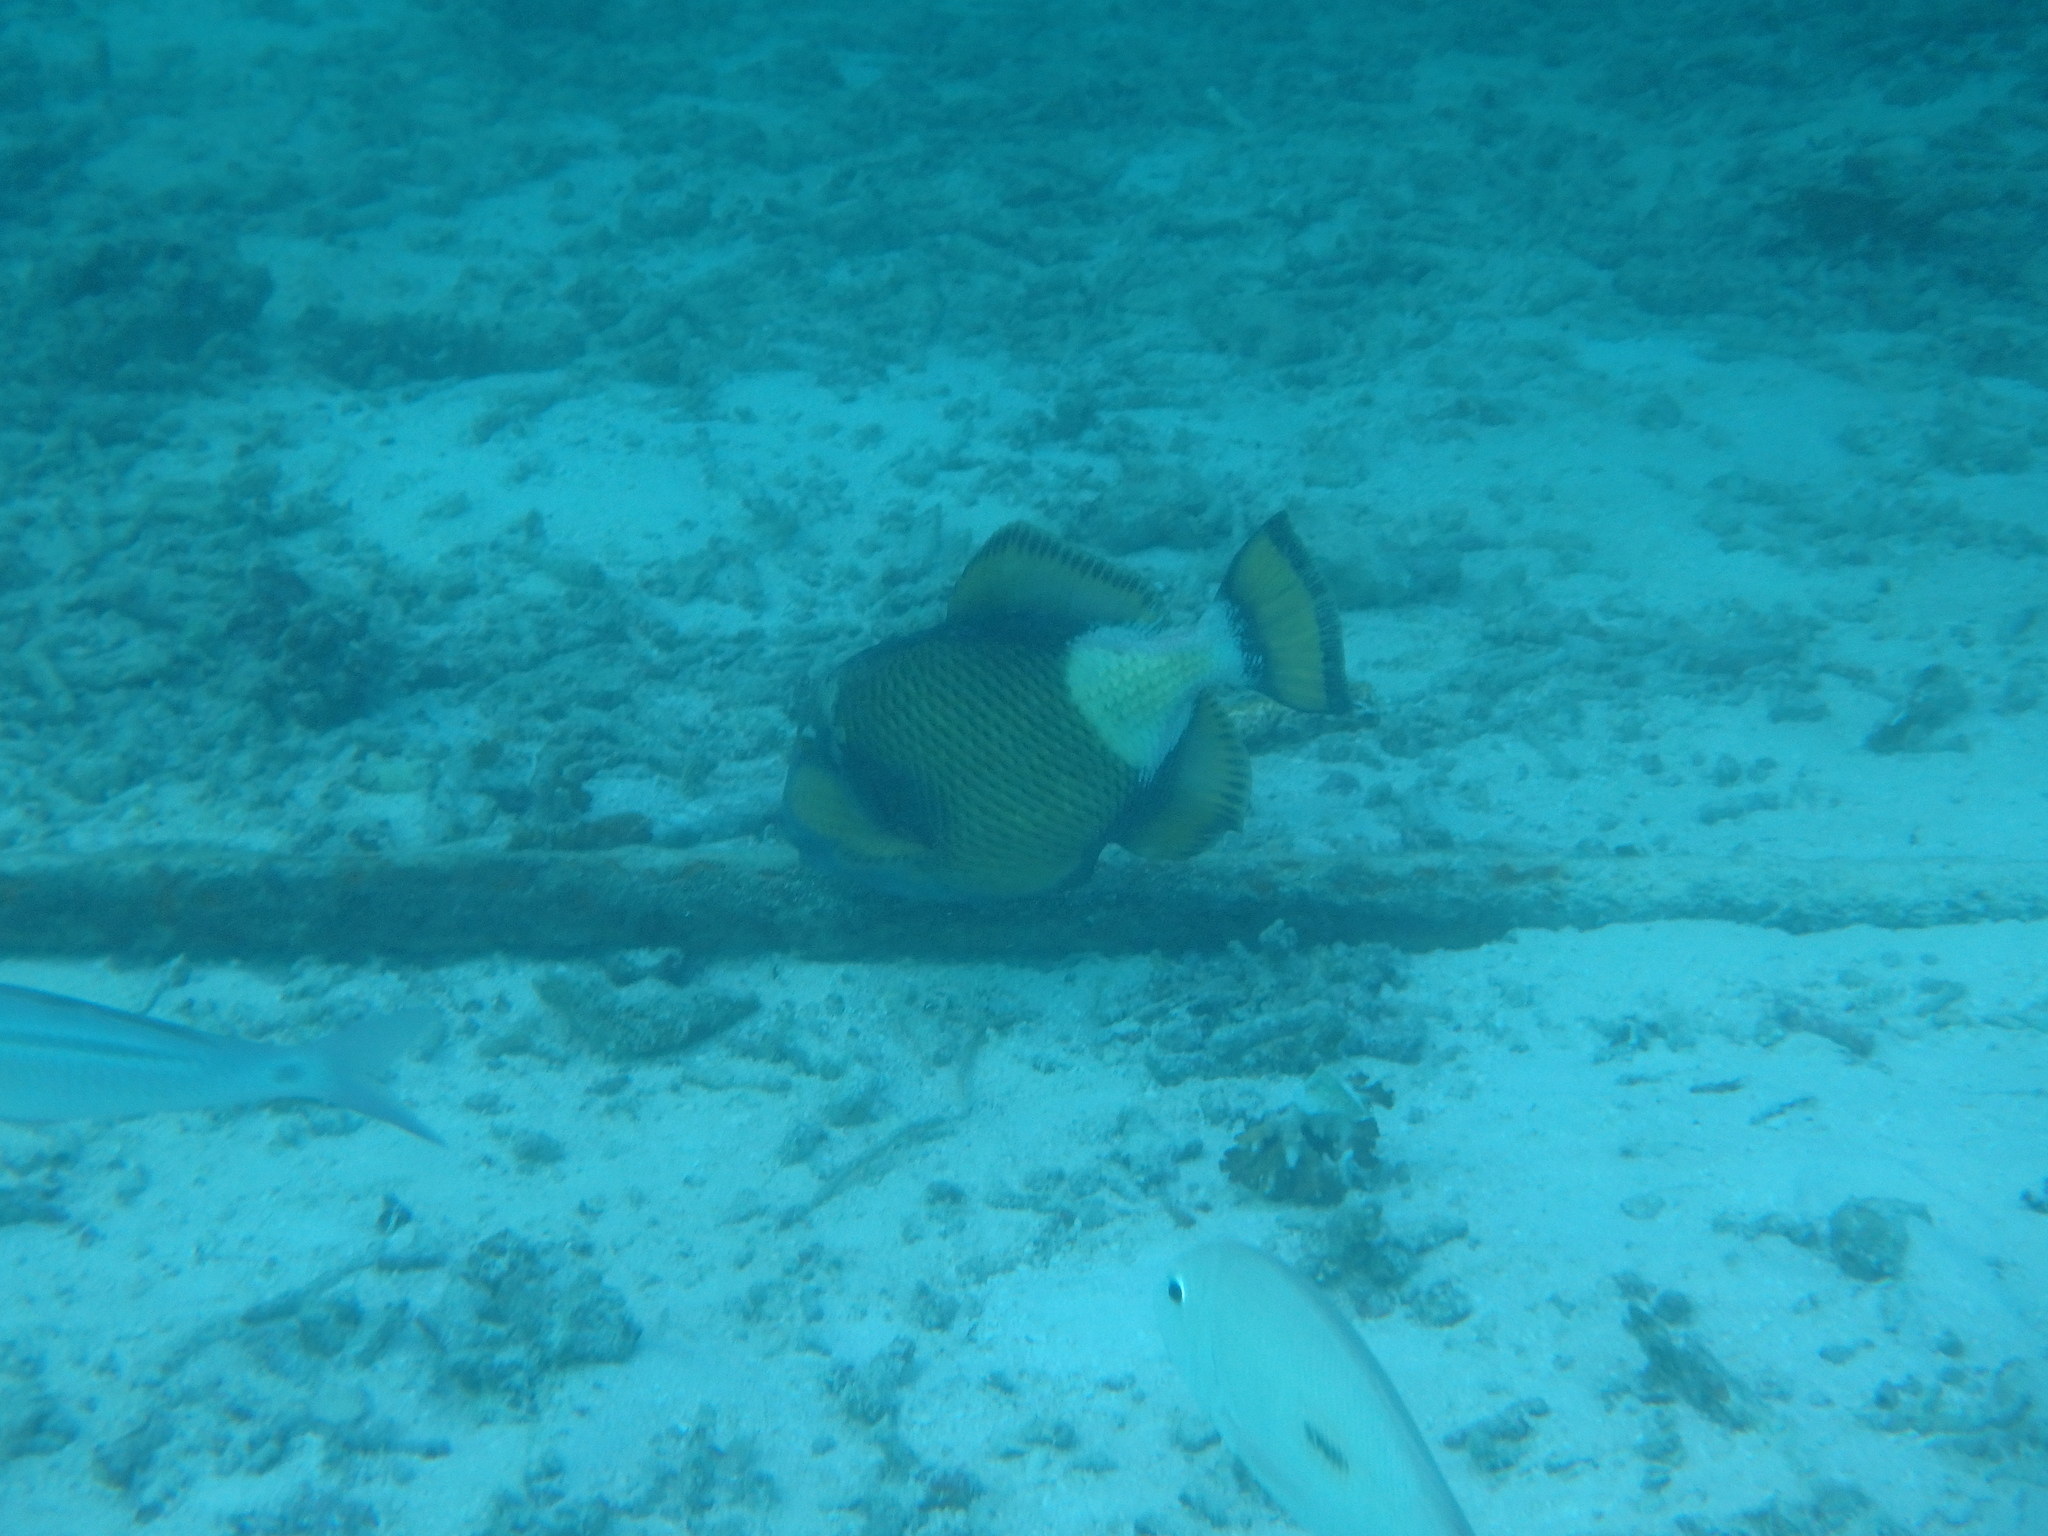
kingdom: Animalia
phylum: Chordata
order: Tetraodontiformes
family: Balistidae
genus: Balistoides
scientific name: Balistoides viridescens
